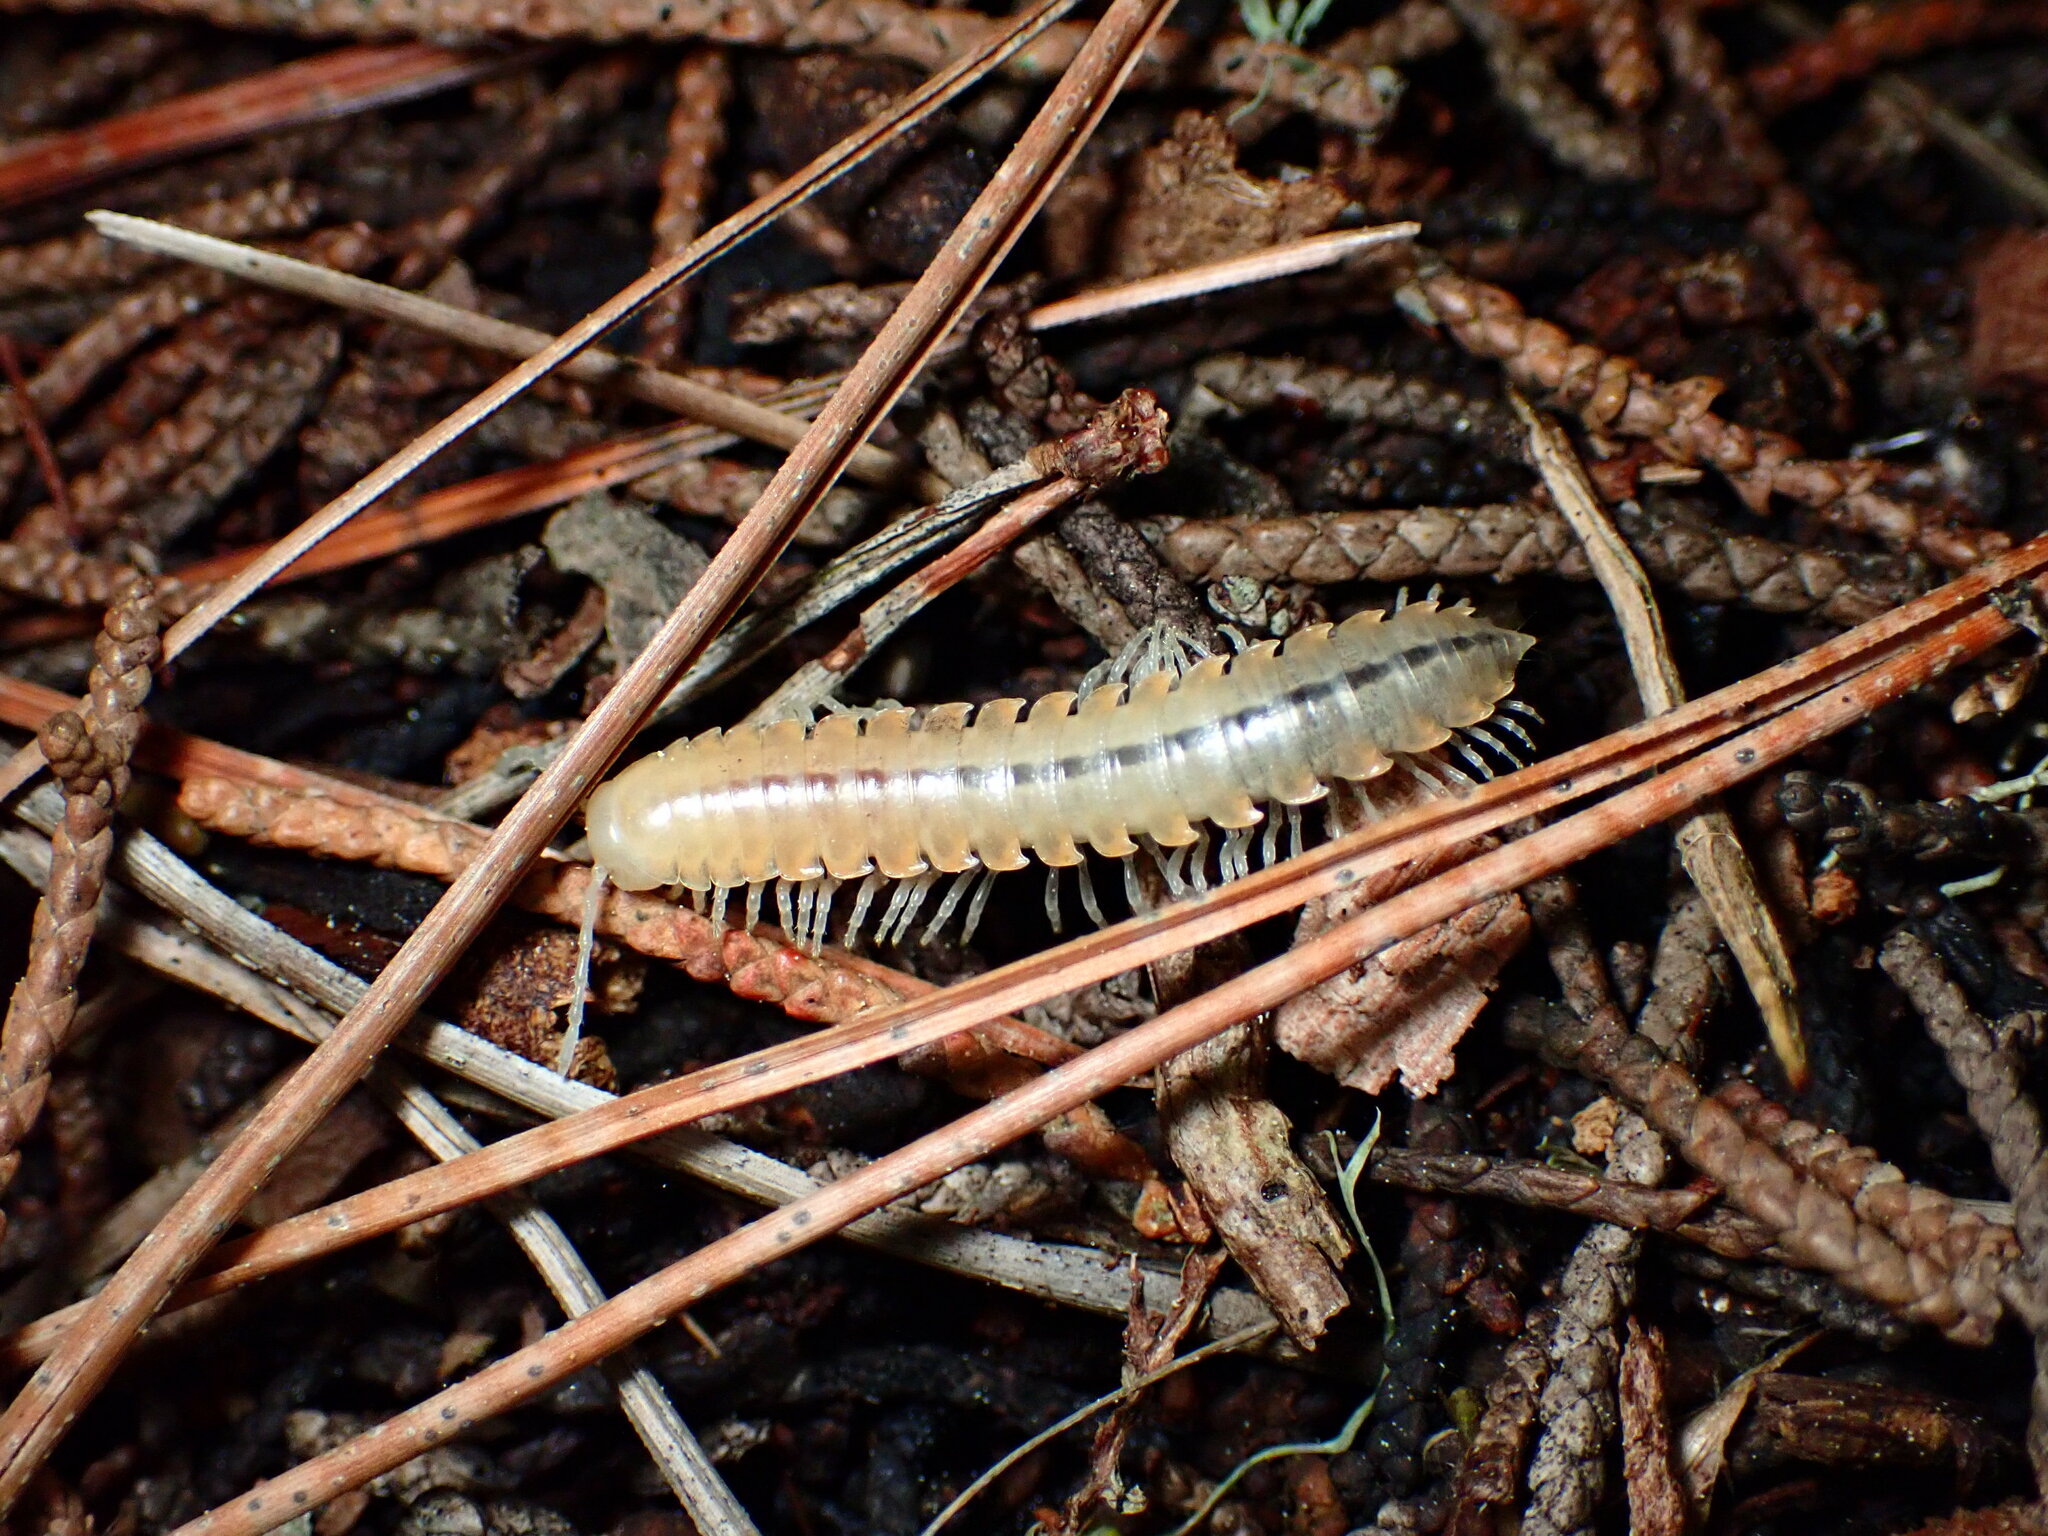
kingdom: Animalia
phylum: Arthropoda
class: Diplopoda
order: Polydesmida
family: Xystodesmidae
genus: Xystocheir
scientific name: Xystocheir dissecta
